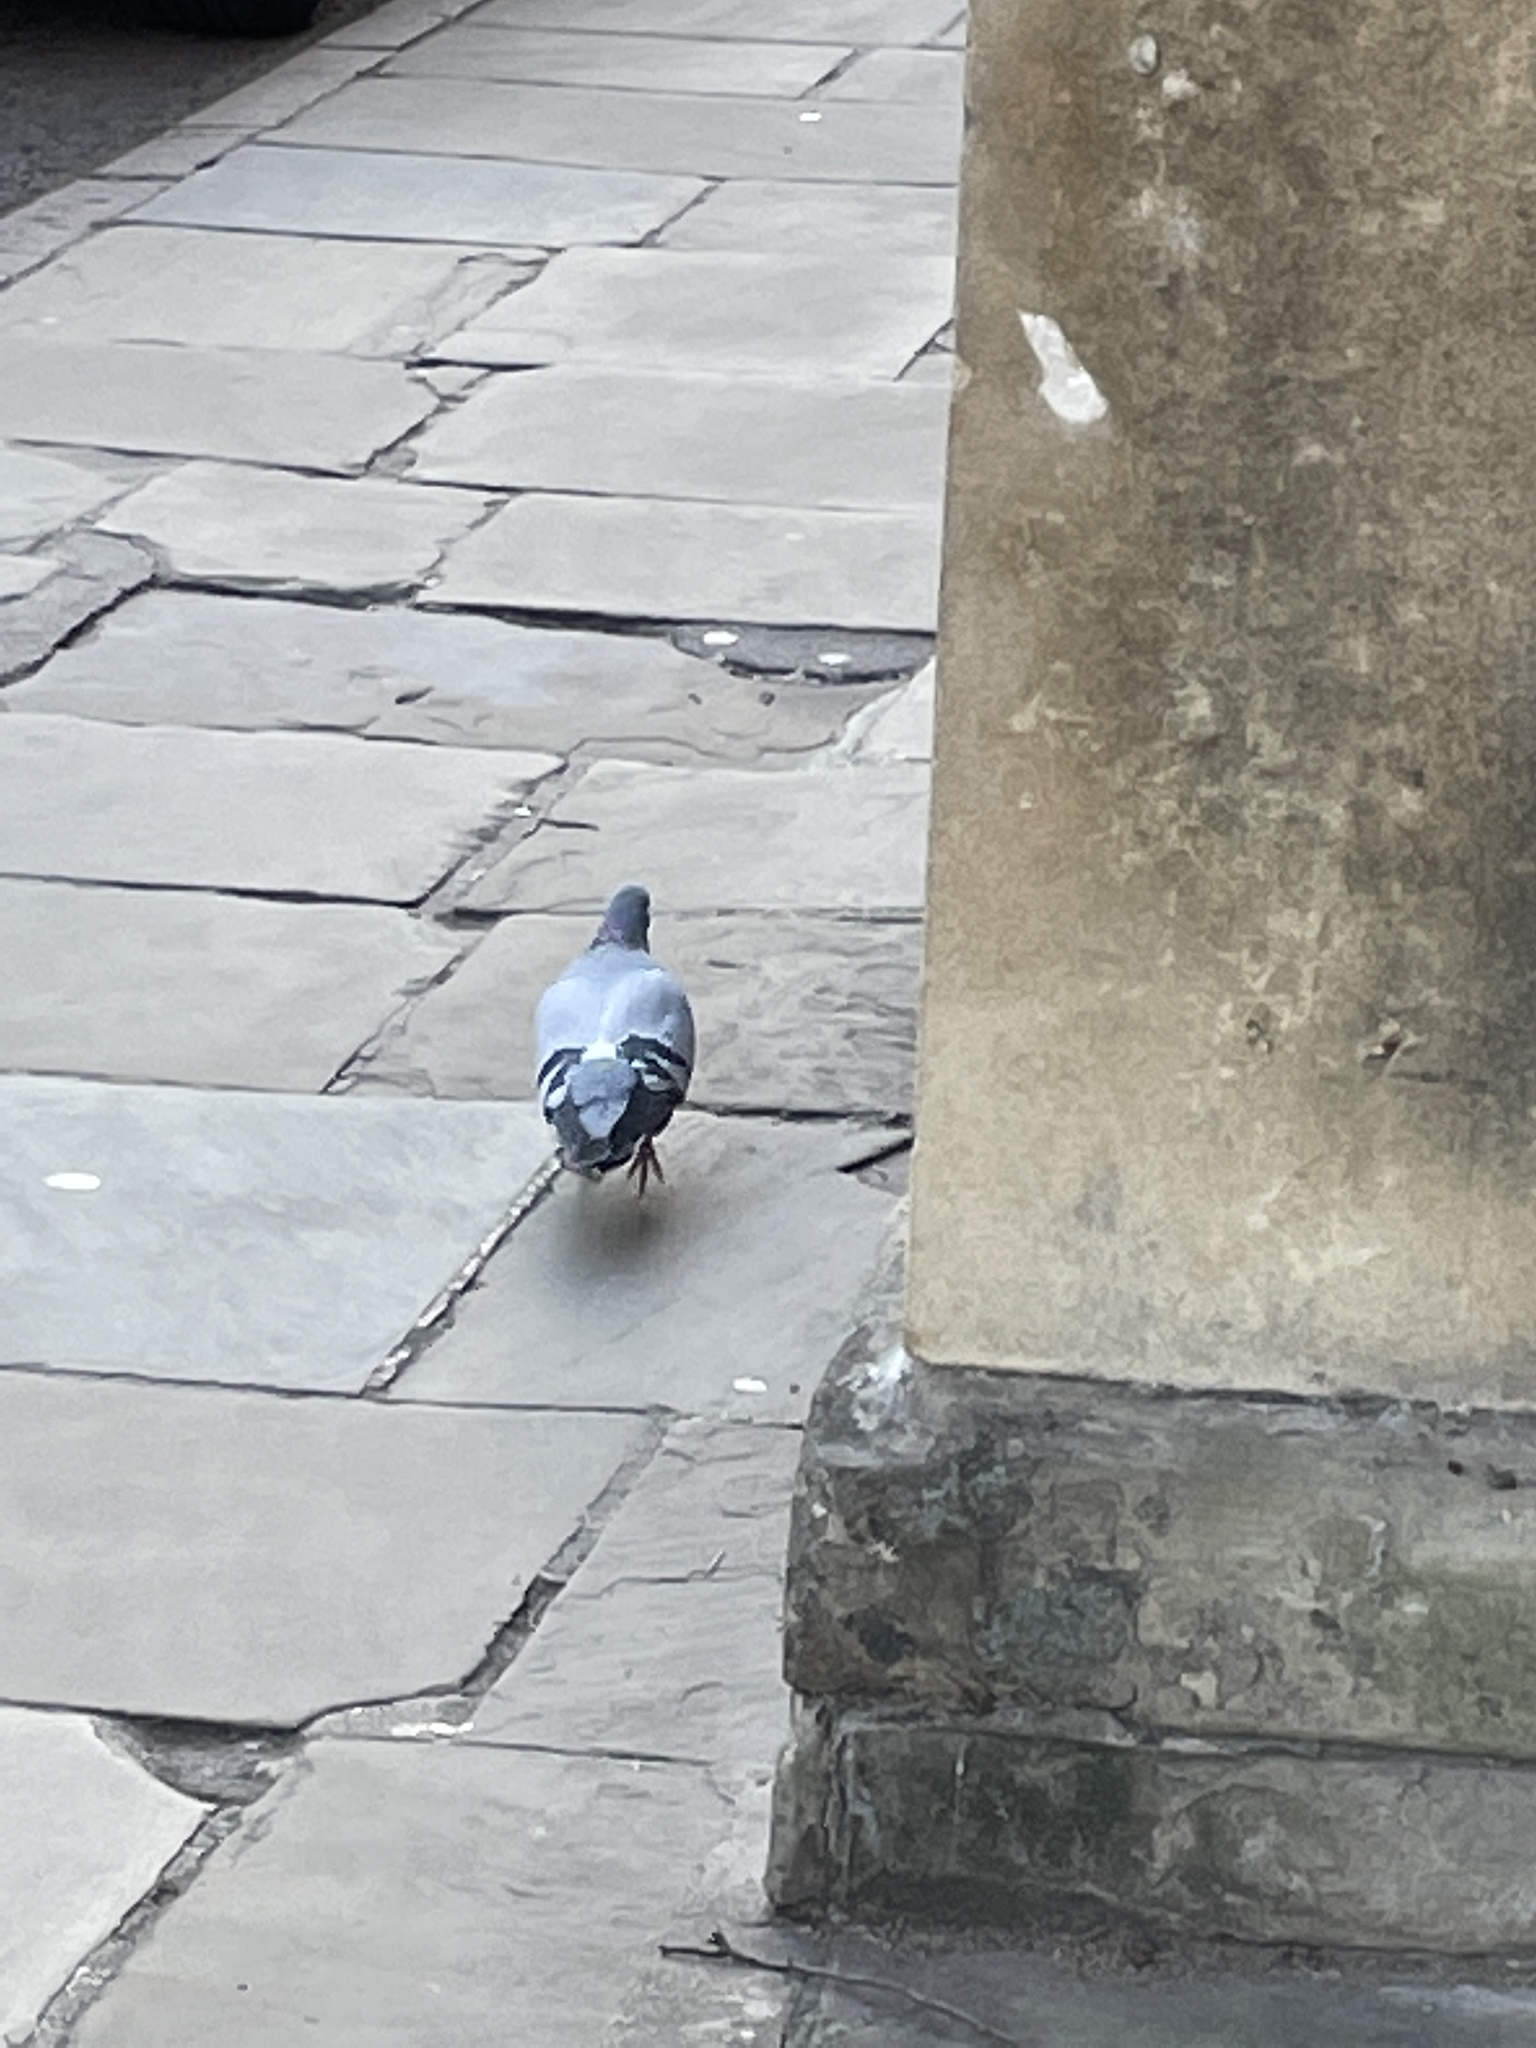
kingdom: Animalia
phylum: Chordata
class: Aves
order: Columbiformes
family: Columbidae
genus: Columba
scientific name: Columba livia
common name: Rock pigeon
